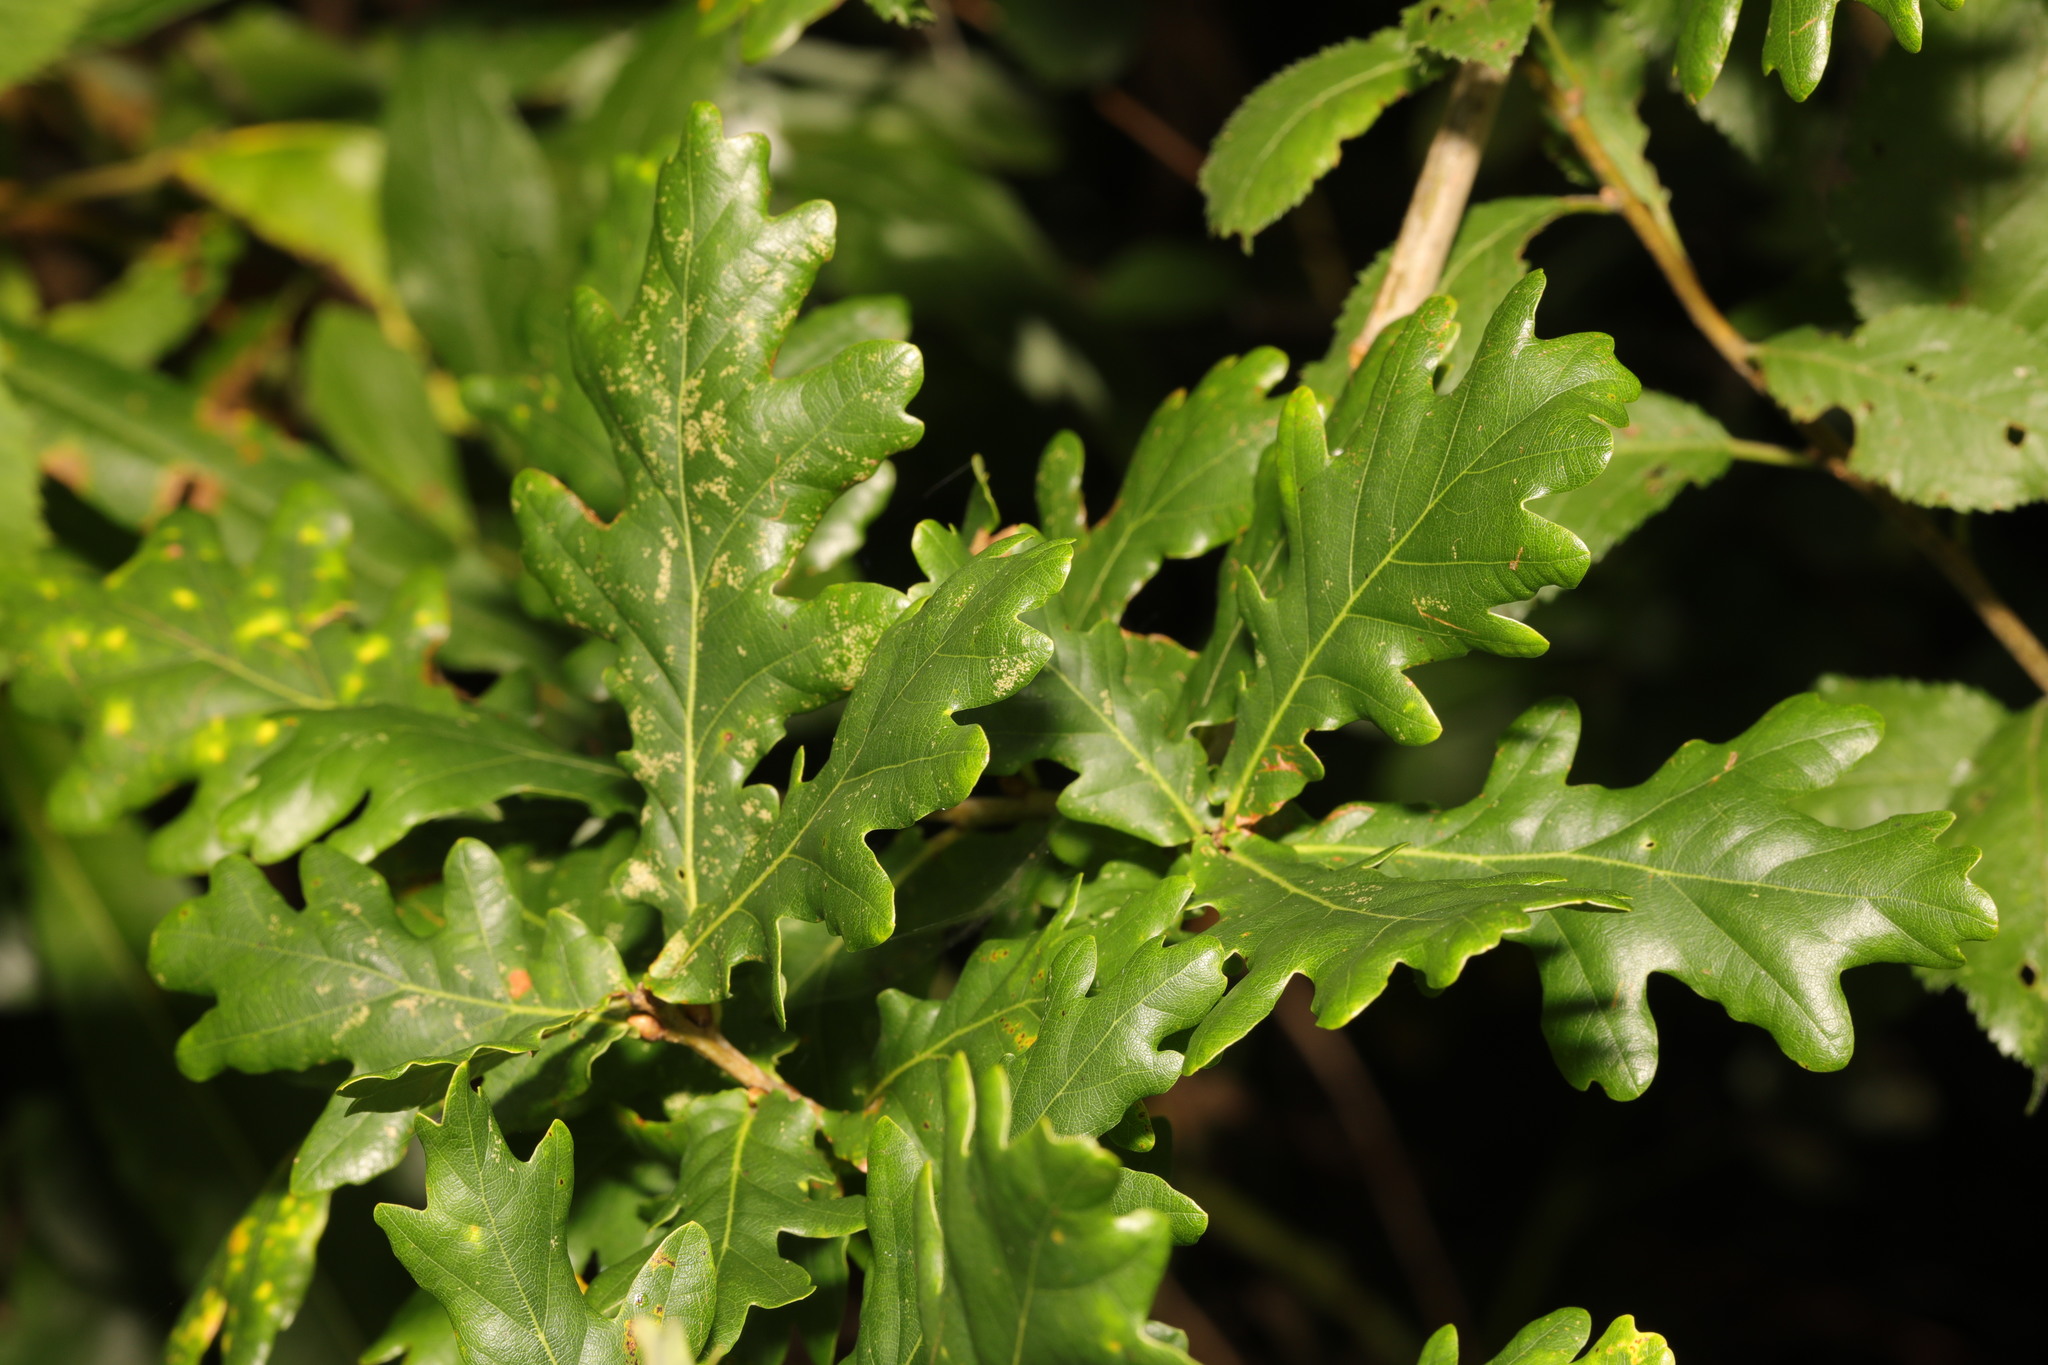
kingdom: Plantae
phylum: Tracheophyta
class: Magnoliopsida
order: Fagales
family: Fagaceae
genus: Quercus
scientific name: Quercus robur
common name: Pedunculate oak
